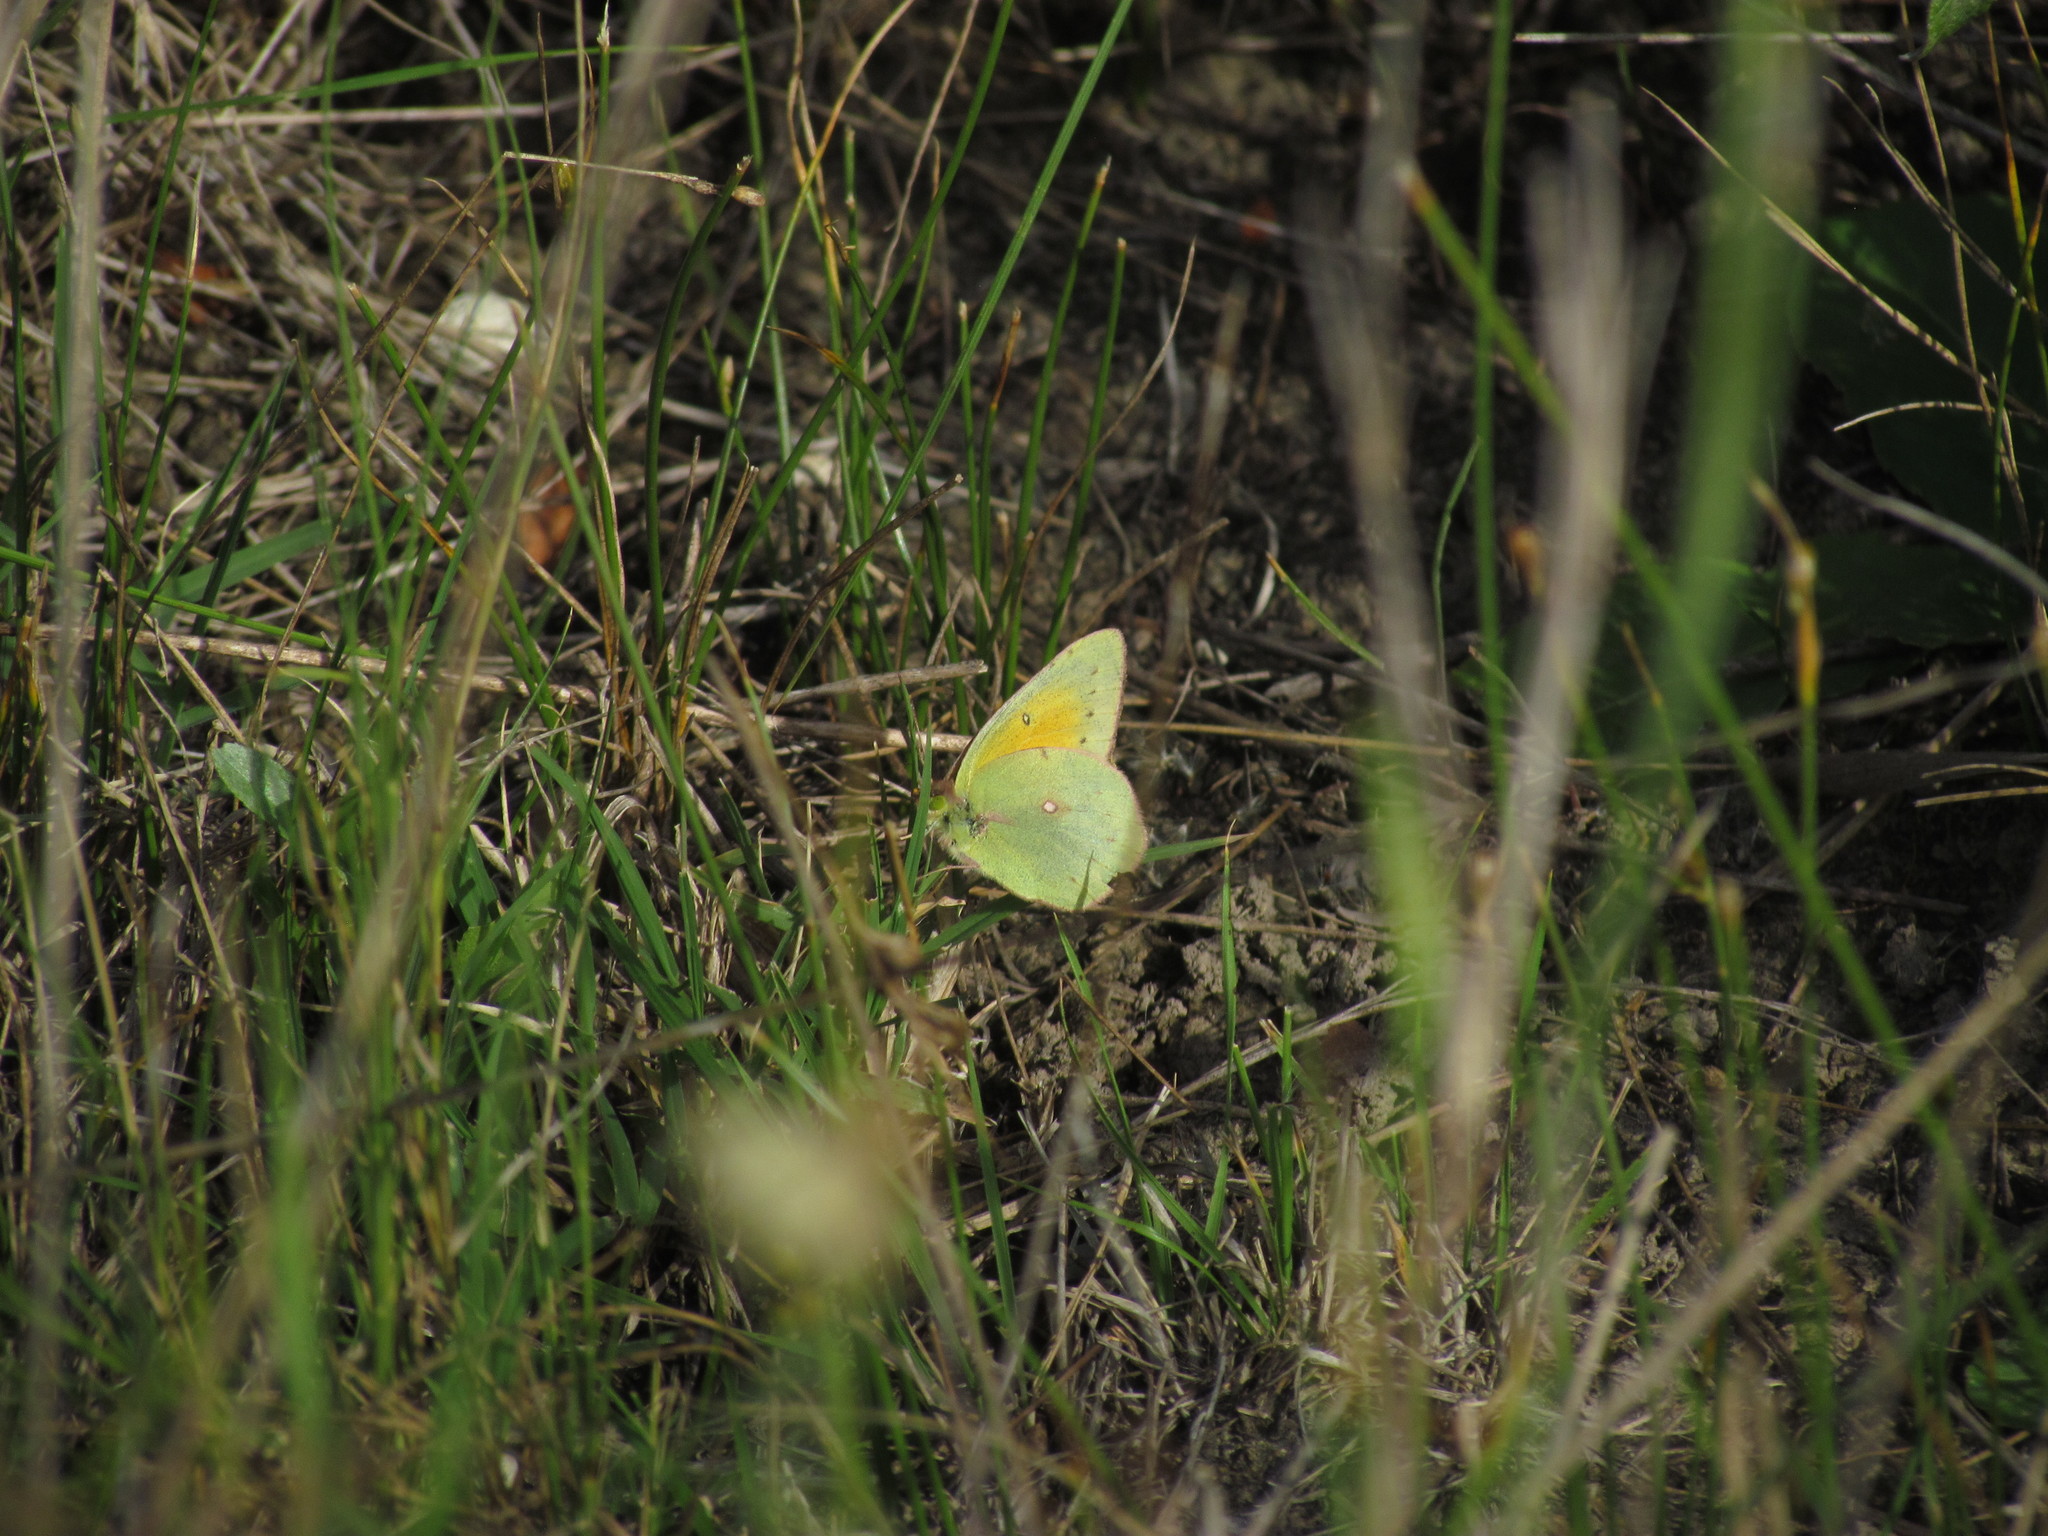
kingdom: Animalia
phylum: Arthropoda
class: Insecta
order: Lepidoptera
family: Pieridae
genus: Colias
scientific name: Colias lesbia
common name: Lesbia clouded yellow
